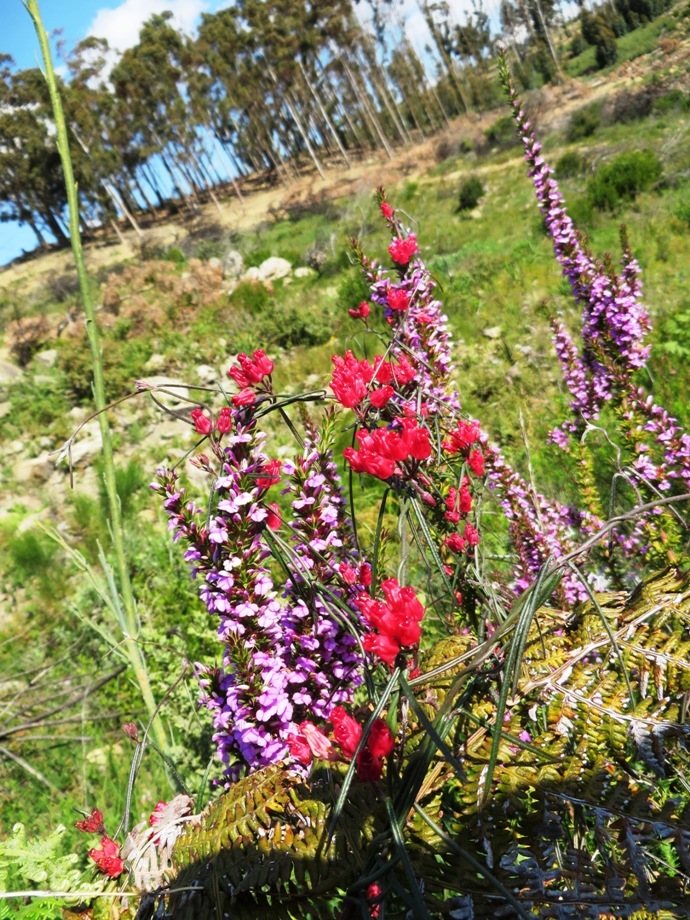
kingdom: Plantae
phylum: Tracheophyta
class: Magnoliopsida
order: Gentianales
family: Apocynaceae
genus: Microloma
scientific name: Microloma tenuifolium
